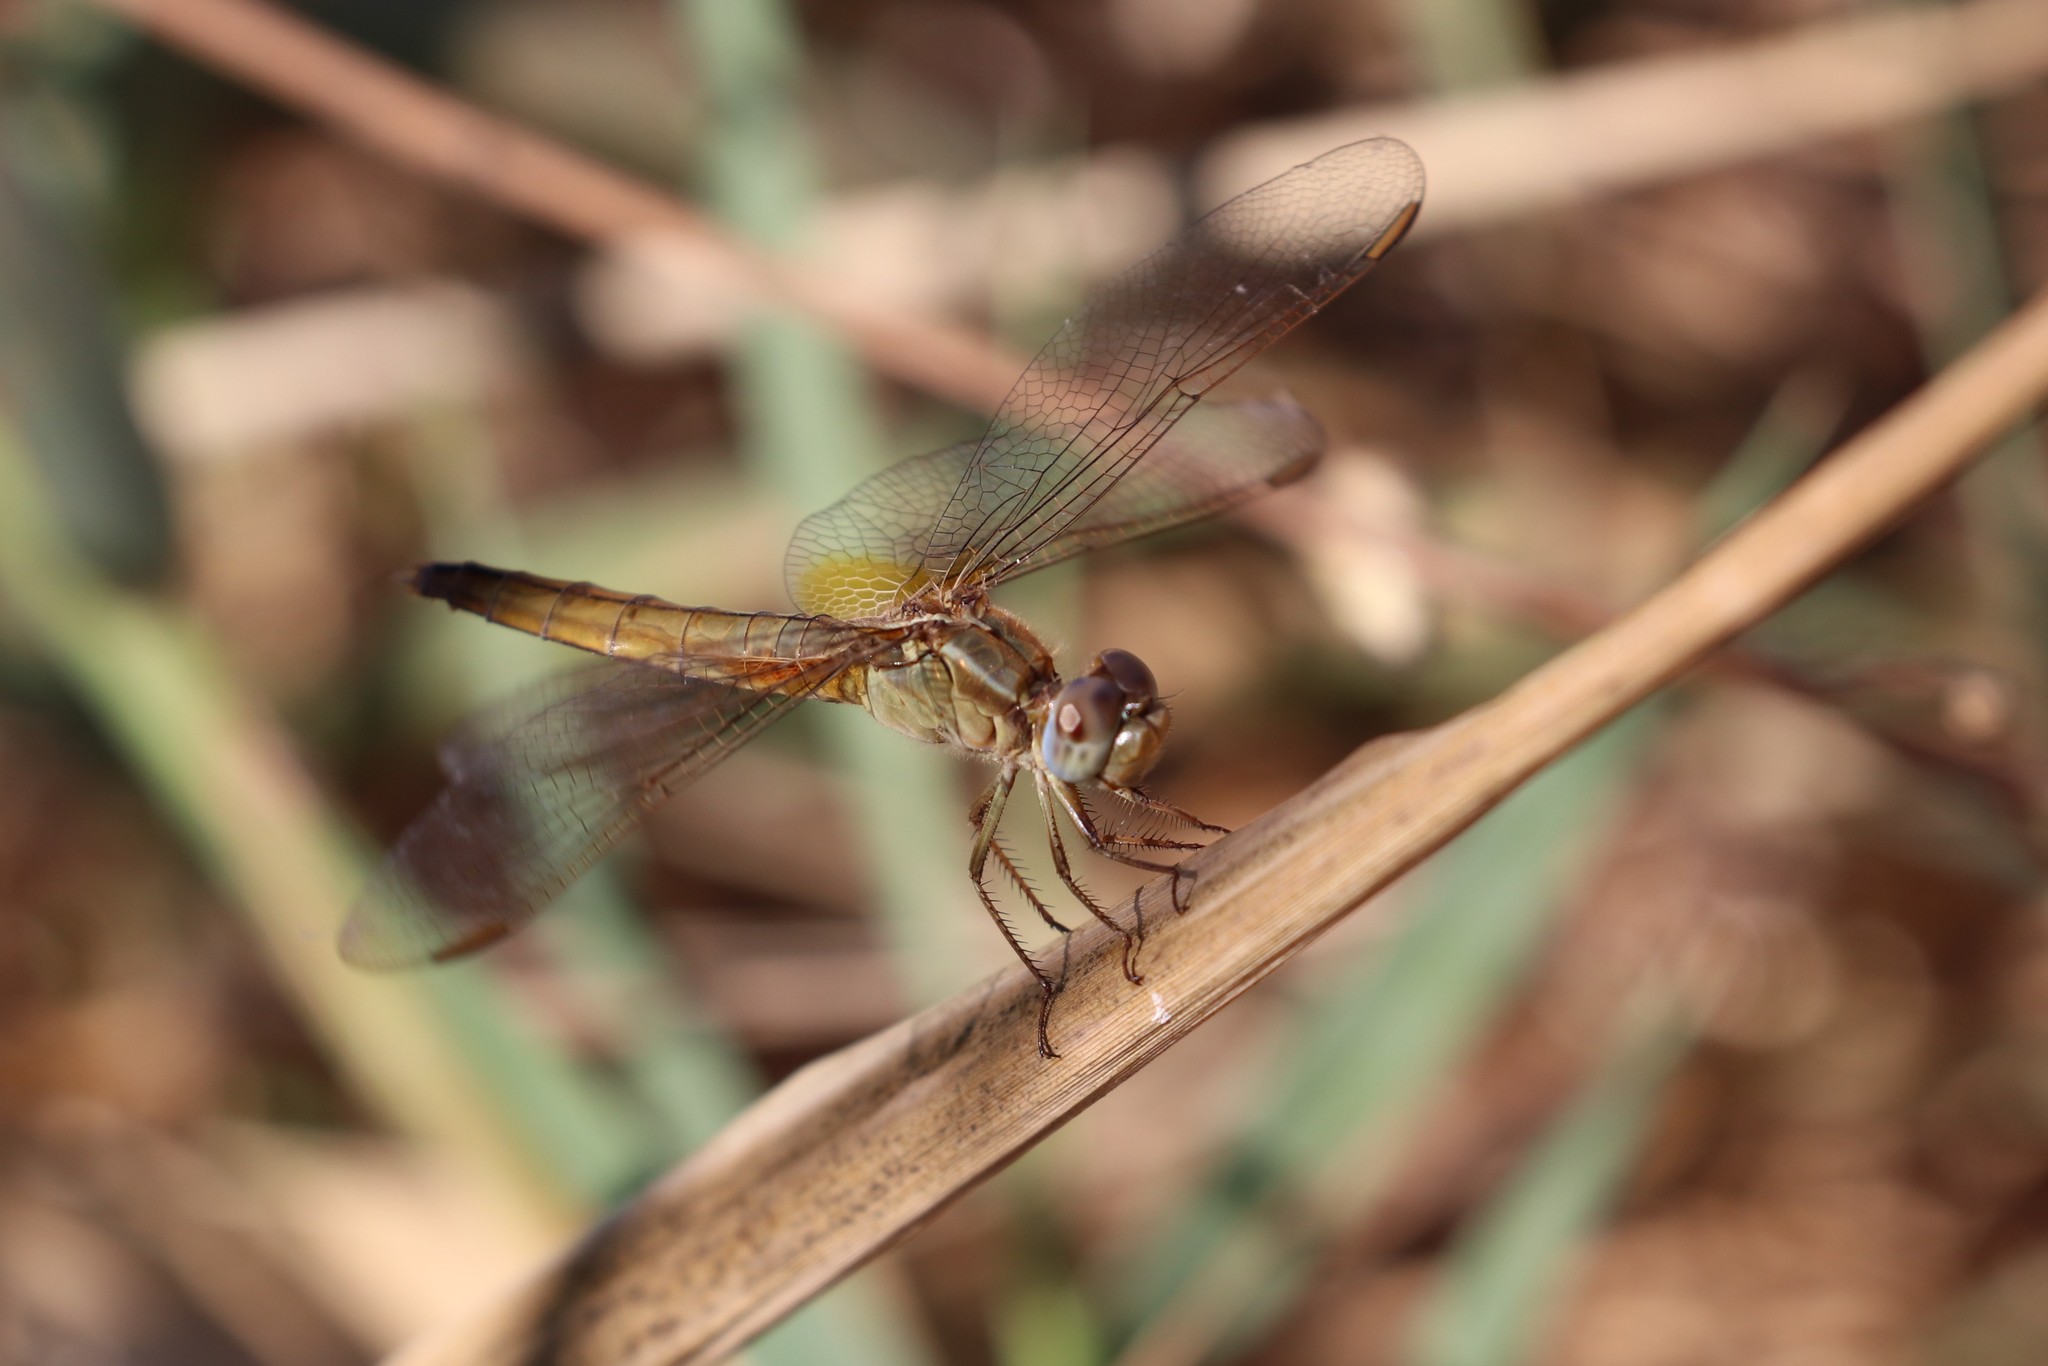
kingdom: Animalia
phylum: Arthropoda
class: Insecta
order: Odonata
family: Libellulidae
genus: Crocothemis
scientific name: Crocothemis erythraea
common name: Scarlet dragonfly
